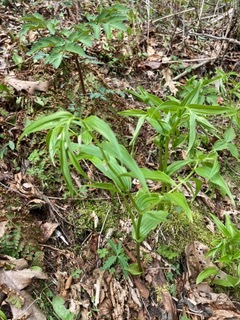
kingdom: Plantae
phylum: Tracheophyta
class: Liliopsida
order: Liliales
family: Liliaceae
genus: Streptopus
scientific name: Streptopus lanceolatus
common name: Rose mandarin
